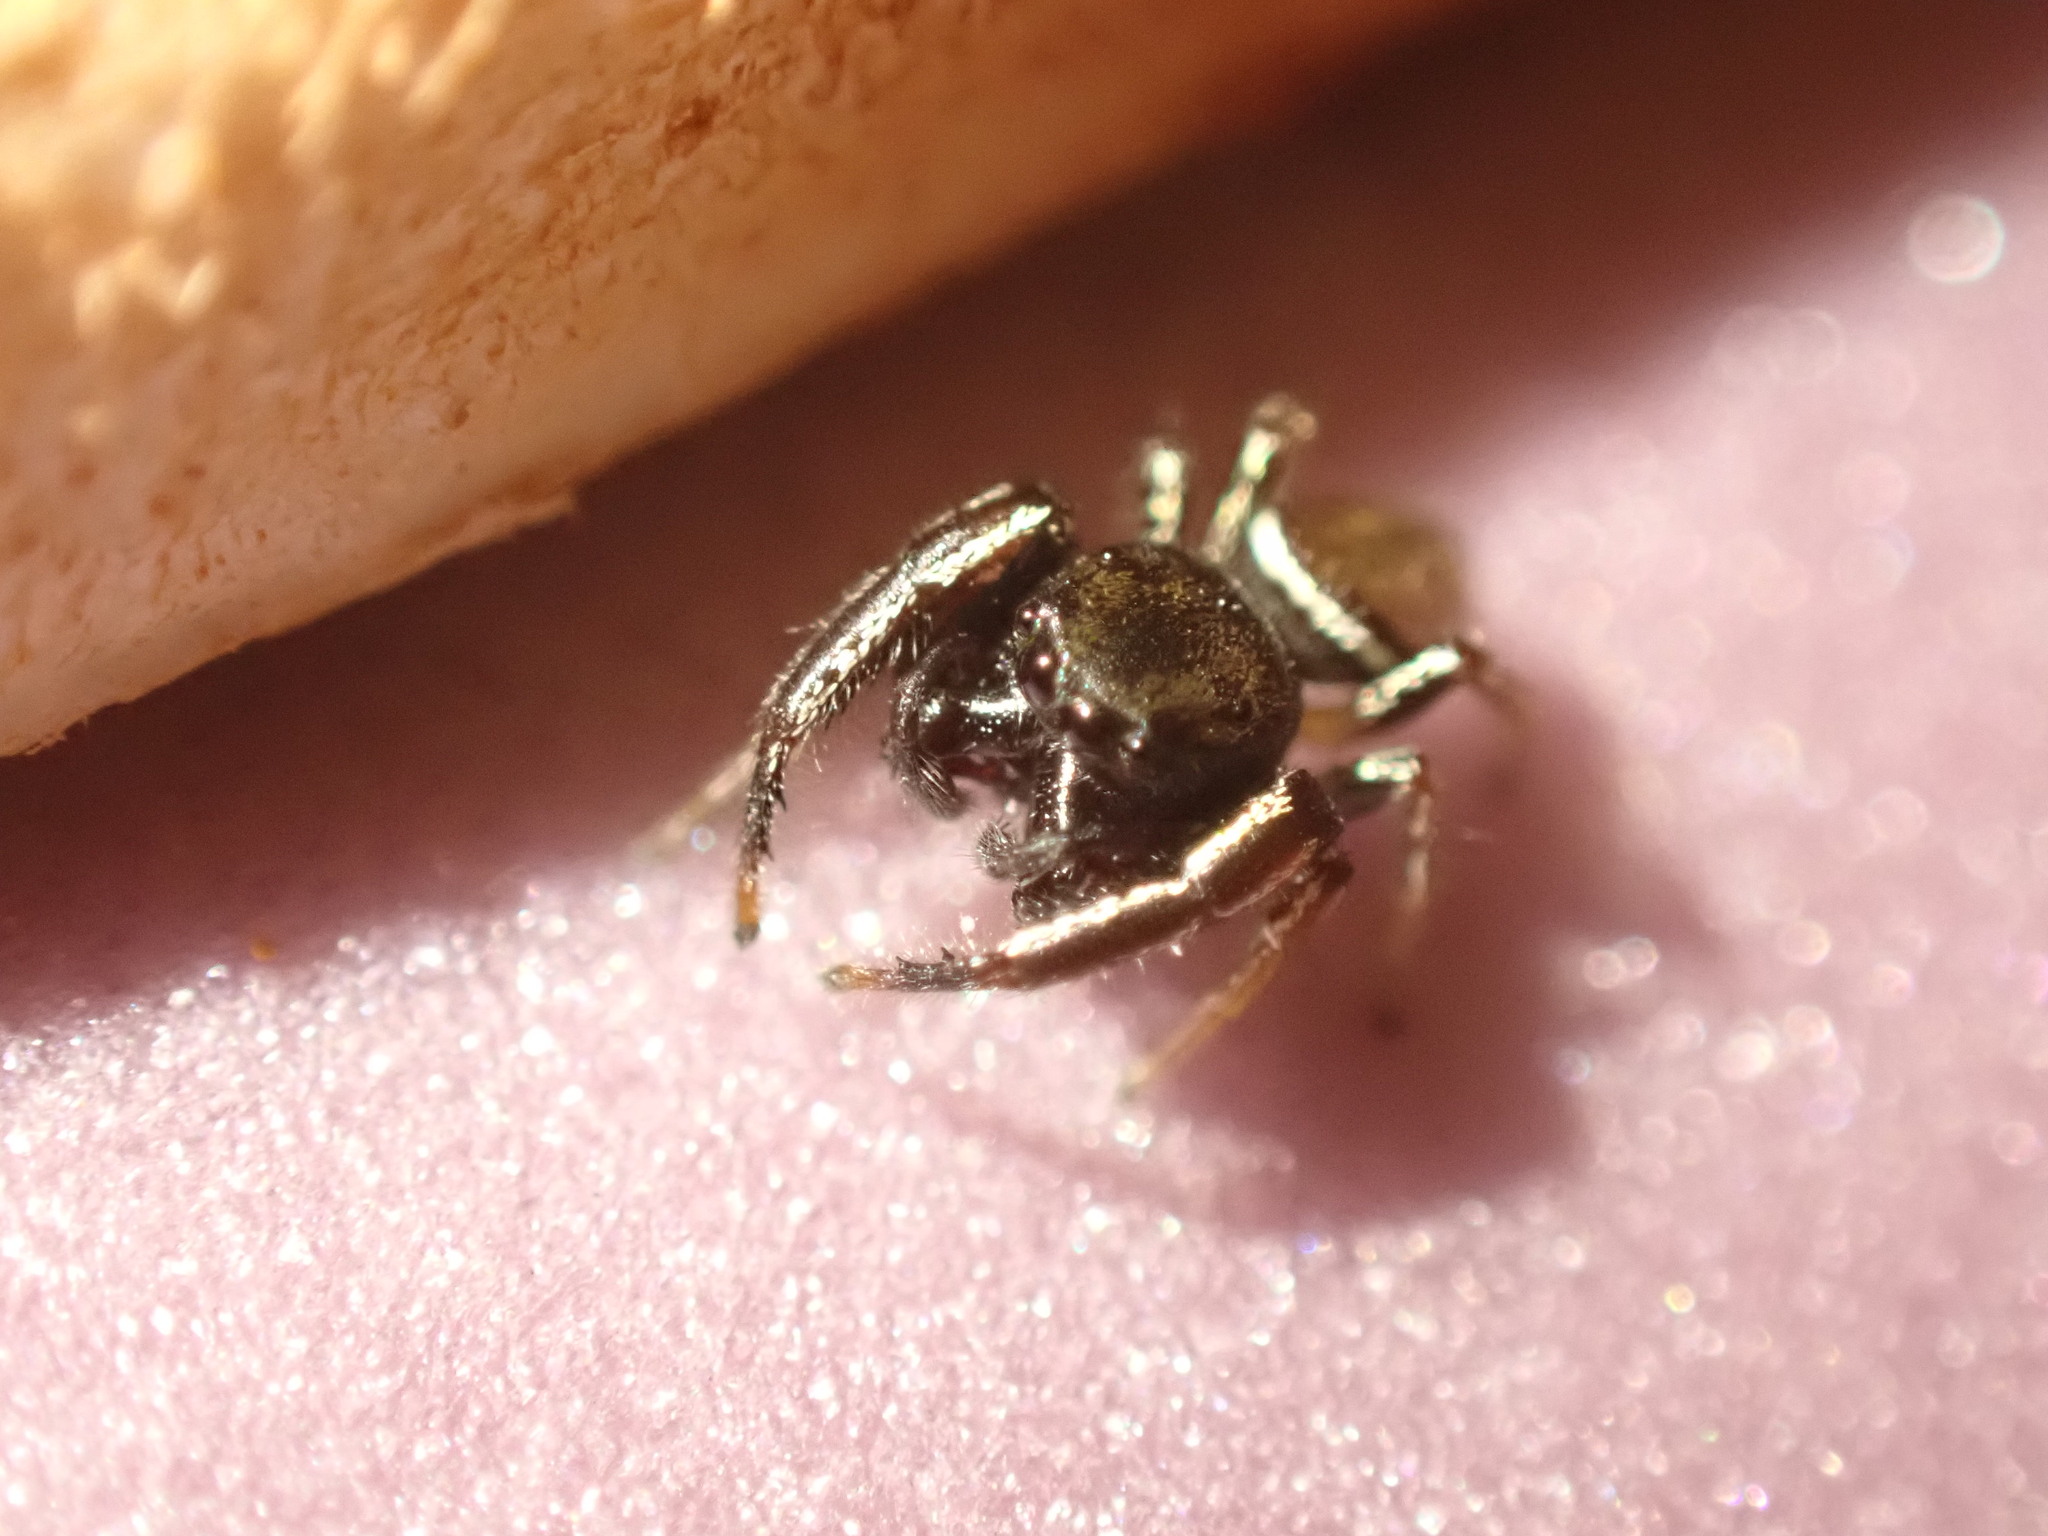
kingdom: Animalia
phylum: Arthropoda
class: Arachnida
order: Araneae
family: Salticidae
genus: Sassacus
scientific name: Sassacus vitis
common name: Jumping spiders
